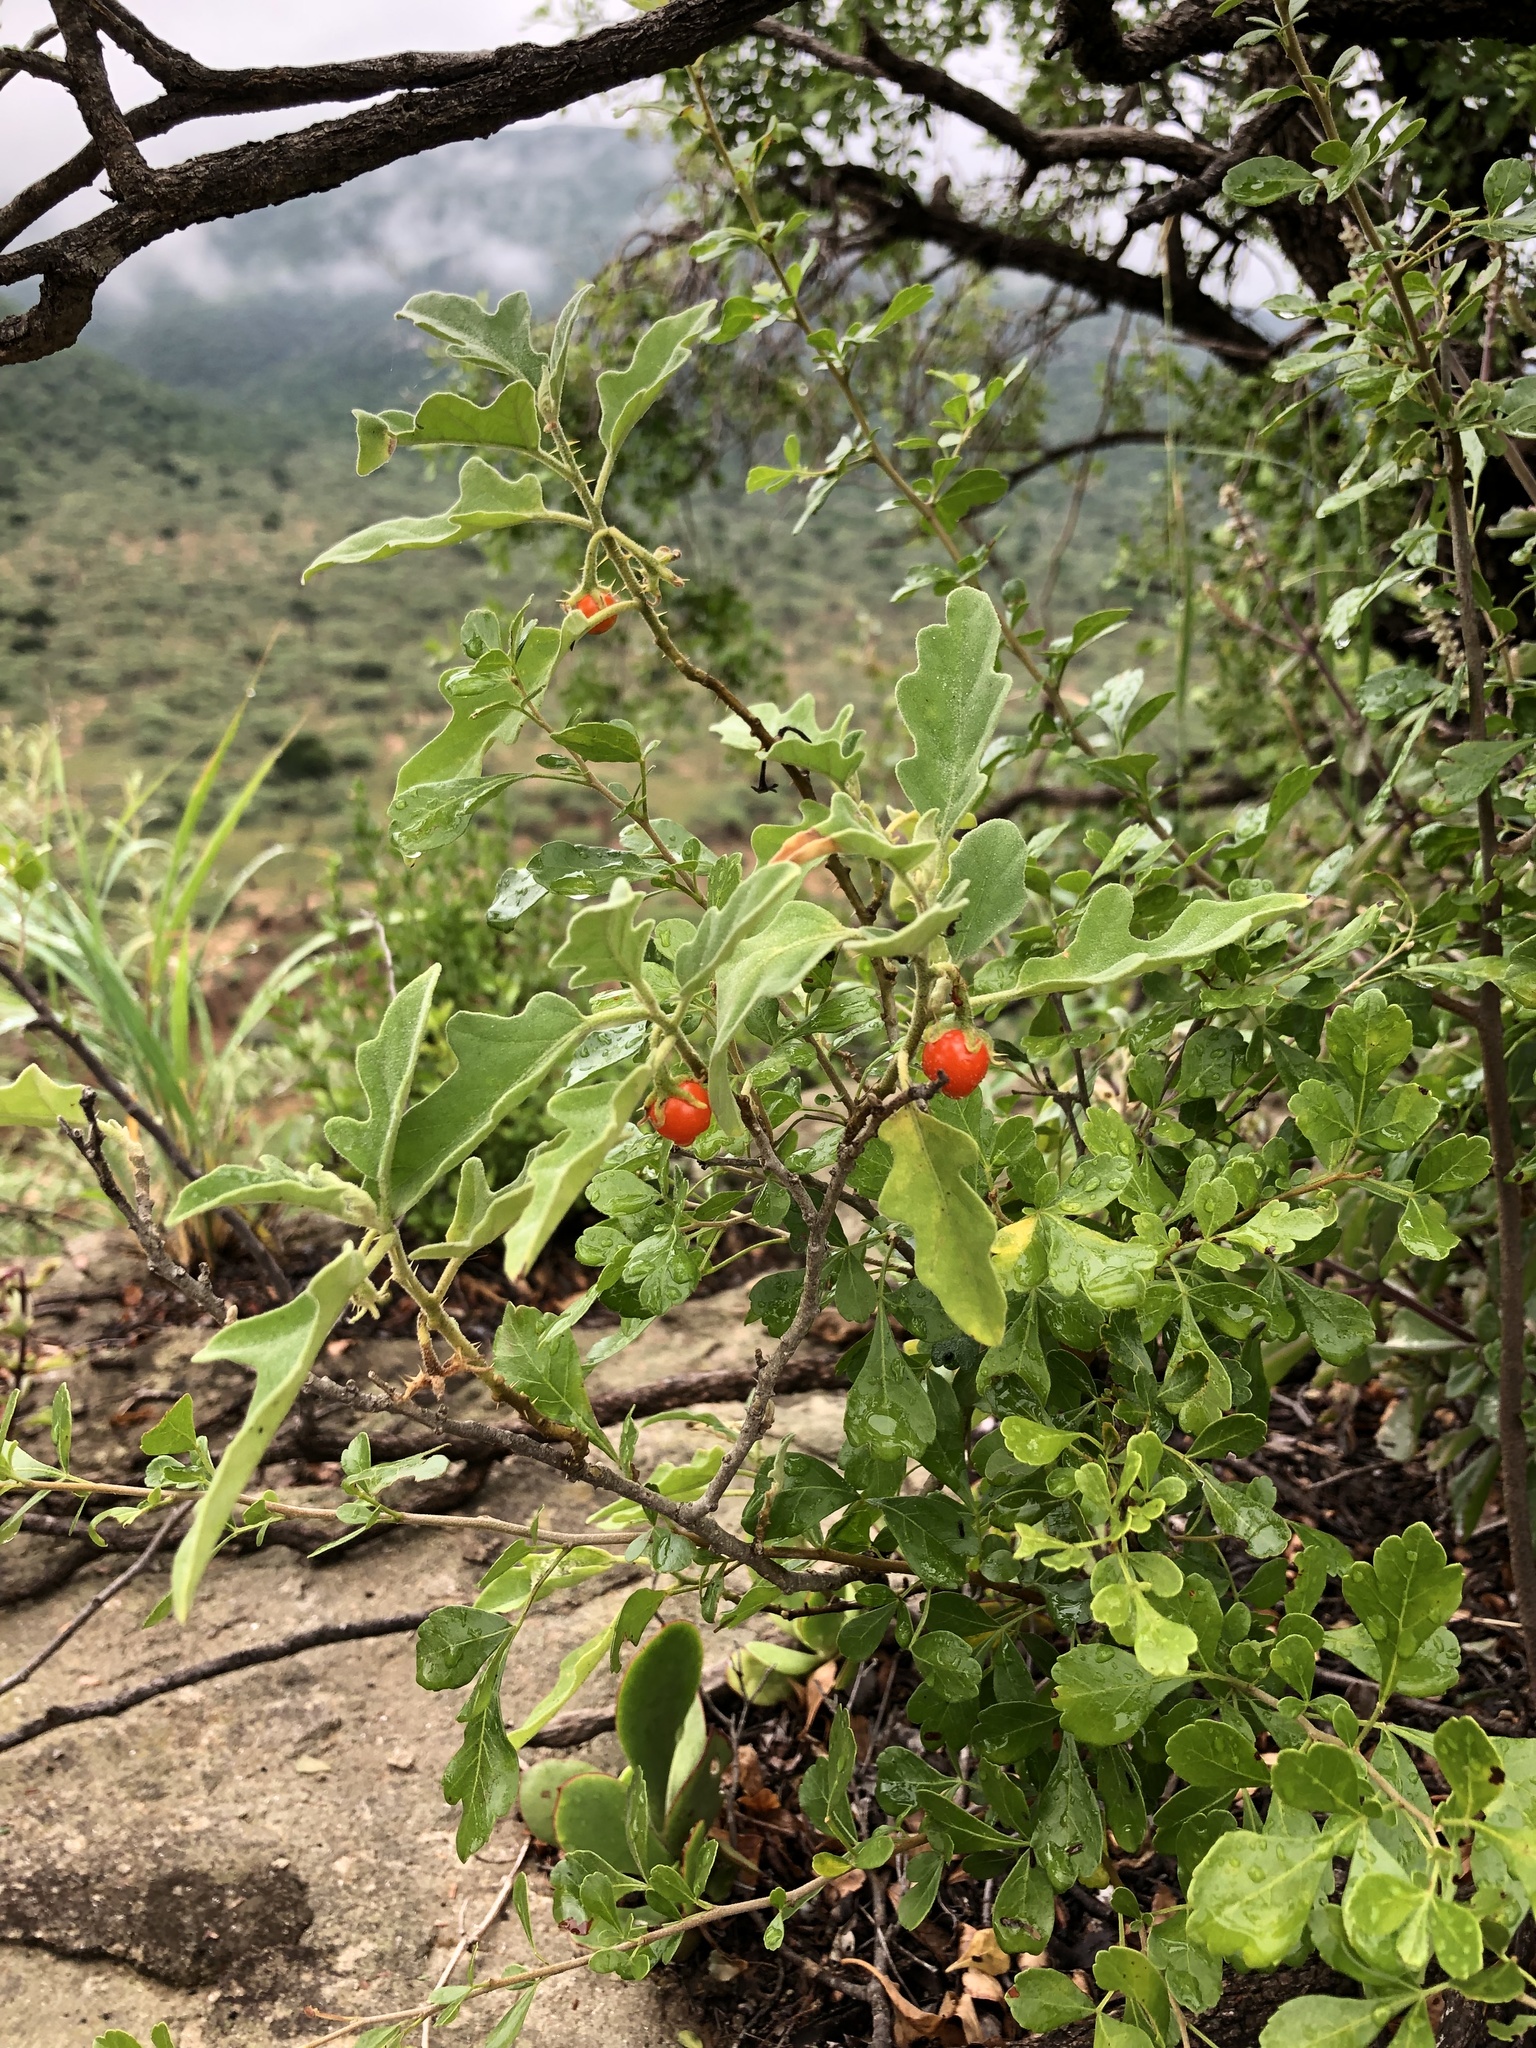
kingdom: Plantae
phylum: Tracheophyta
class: Magnoliopsida
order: Solanales
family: Solanaceae
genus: Solanum
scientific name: Solanum catombelense
